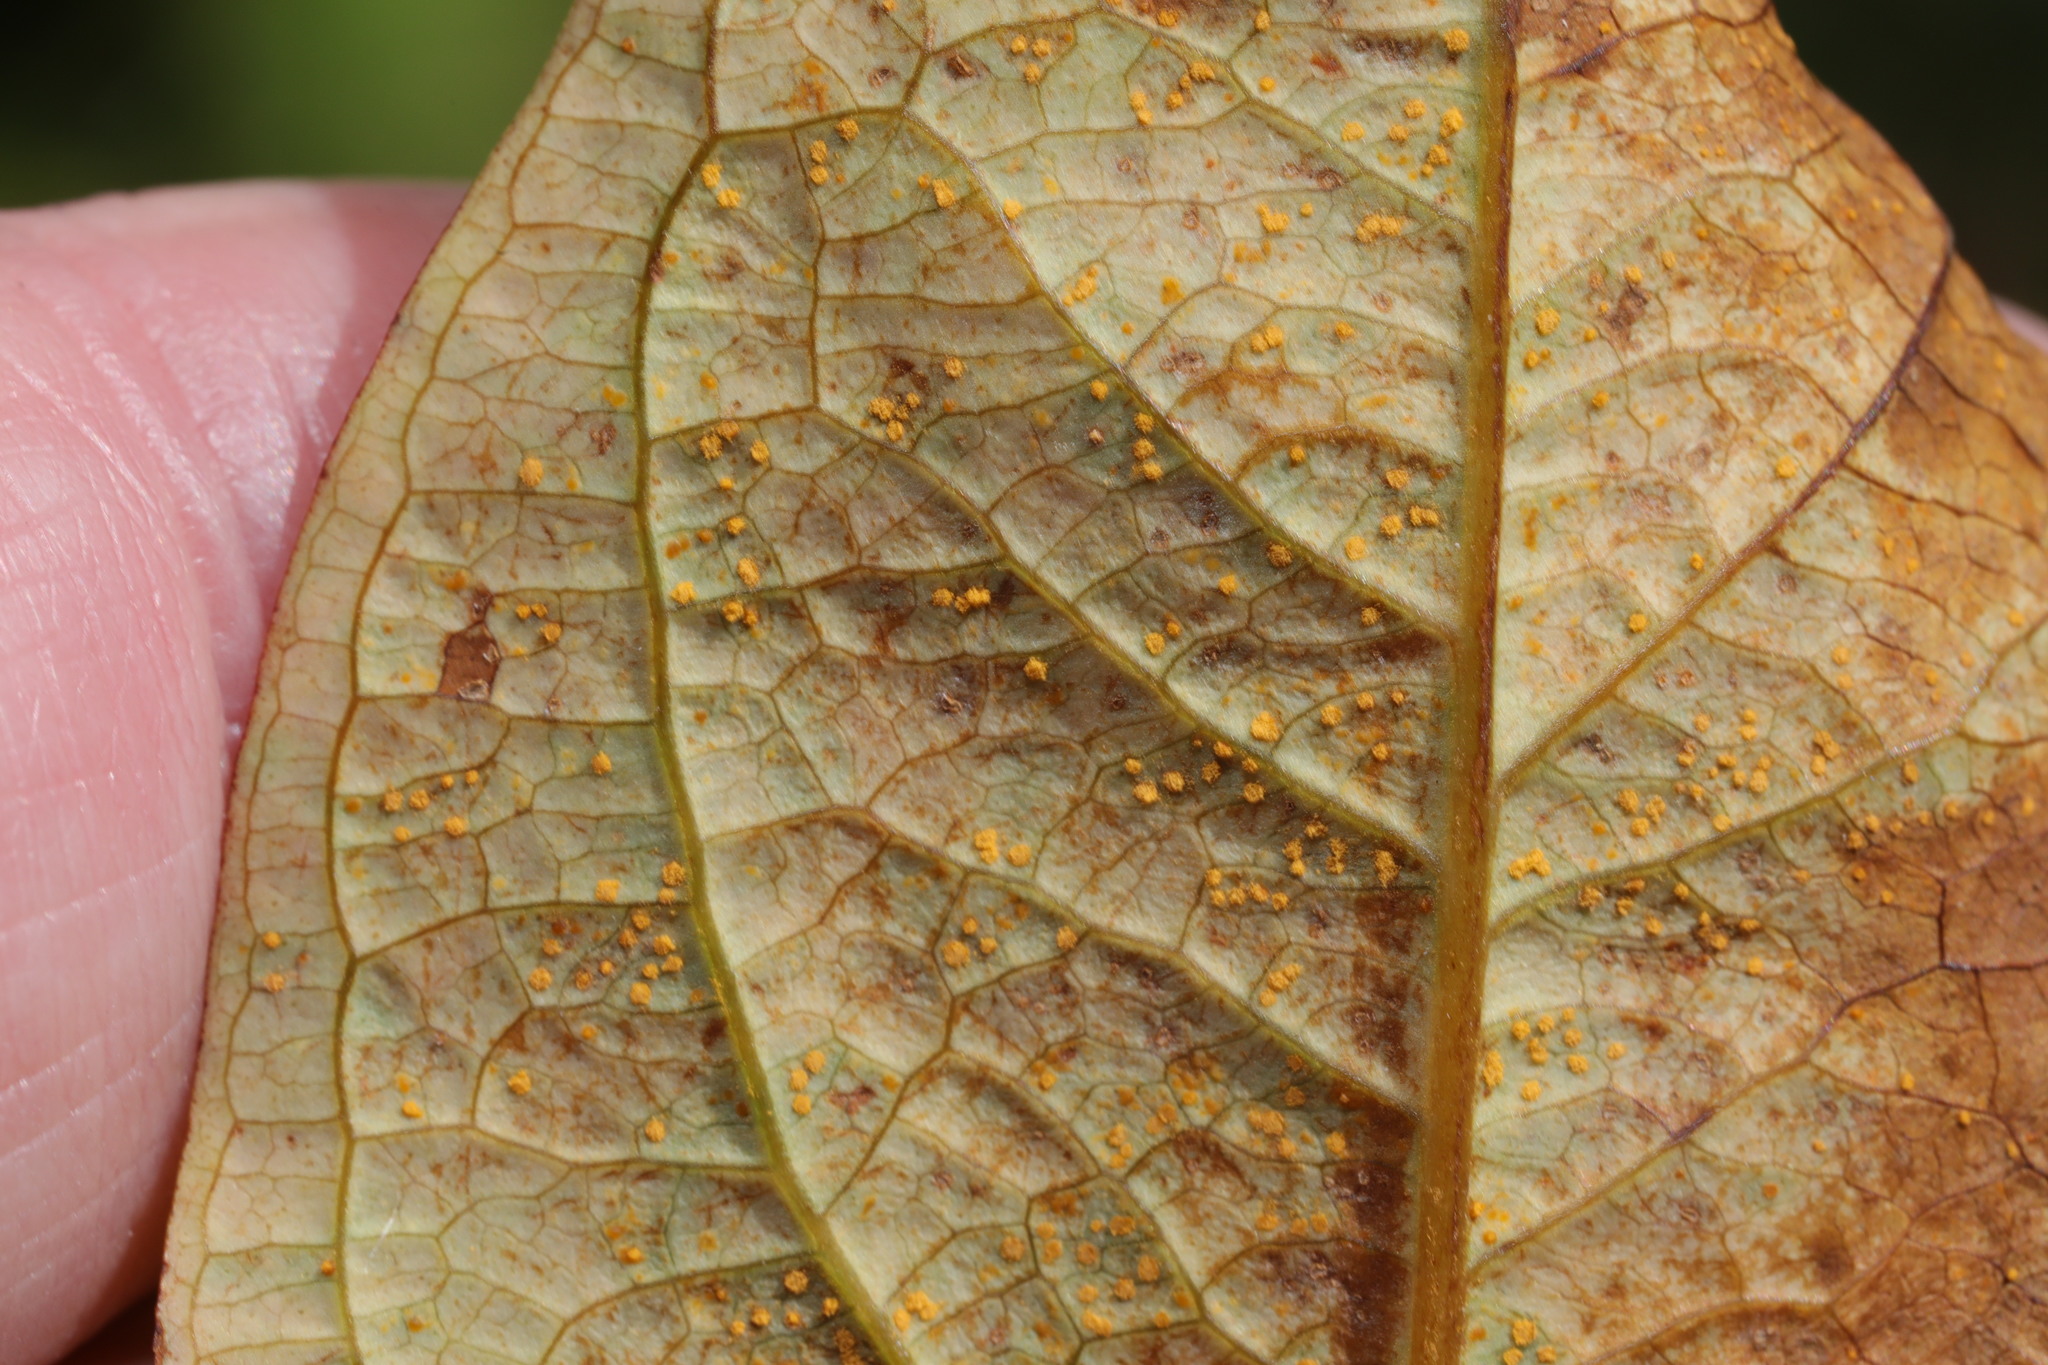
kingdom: Fungi
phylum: Basidiomycota
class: Pucciniomycetes
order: Pucciniales
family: Melampsoraceae
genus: Melampsora
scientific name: Melampsora
